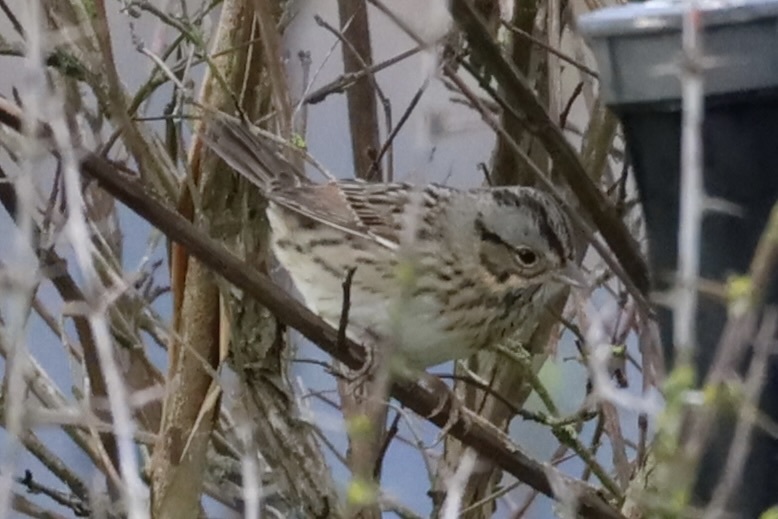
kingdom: Animalia
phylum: Chordata
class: Aves
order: Passeriformes
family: Passerellidae
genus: Melospiza
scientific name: Melospiza lincolnii
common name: Lincoln's sparrow
